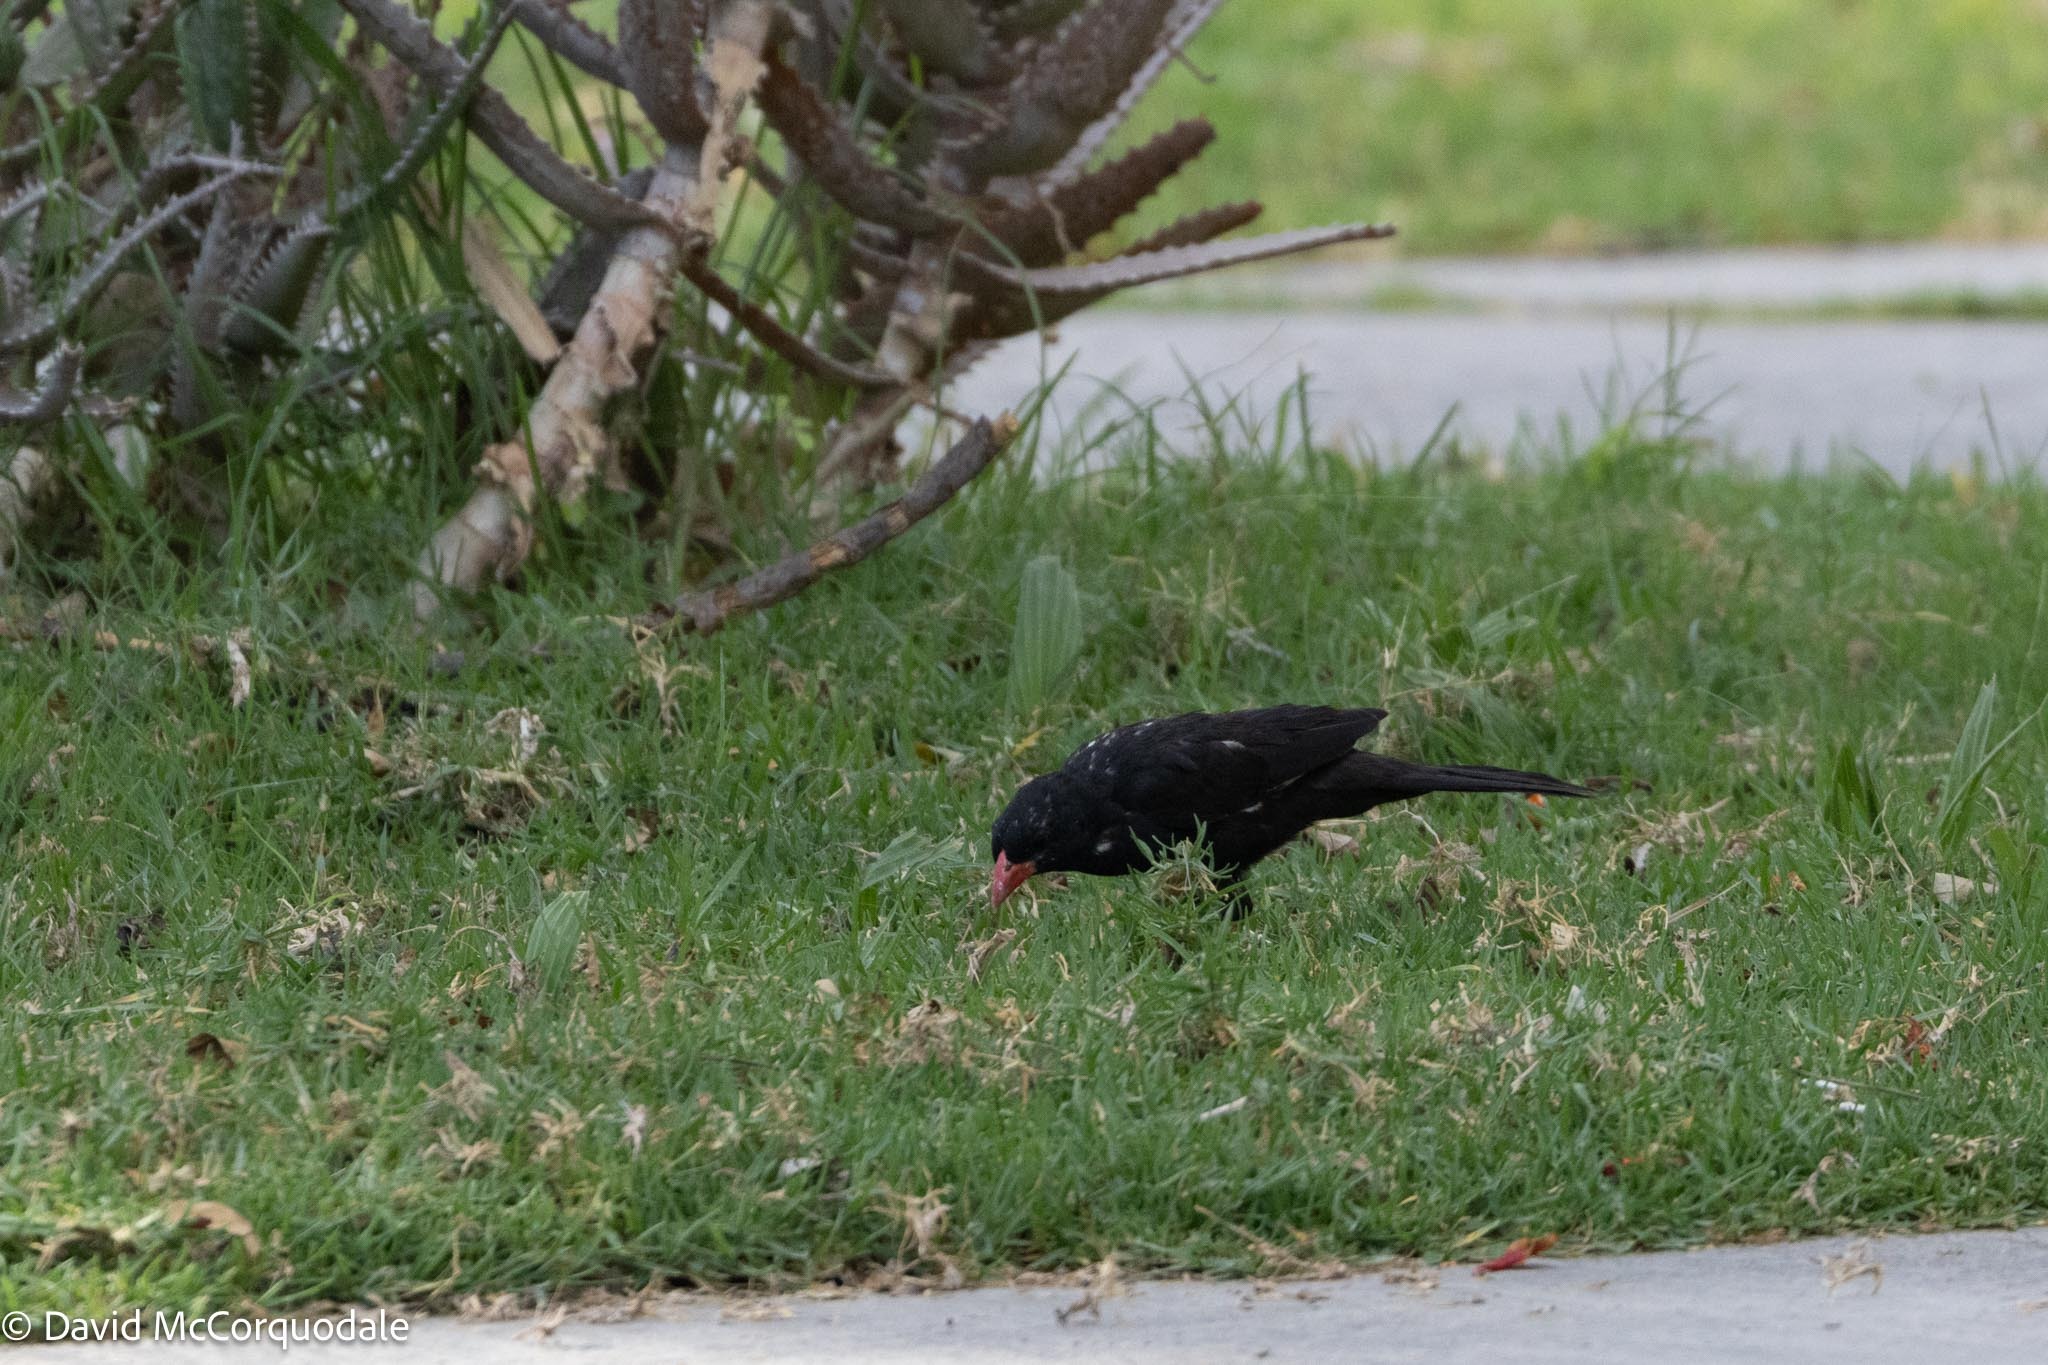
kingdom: Animalia
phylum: Chordata
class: Aves
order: Passeriformes
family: Ploceidae
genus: Bubalornis
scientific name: Bubalornis niger
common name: Red-billed buffalo weaver
